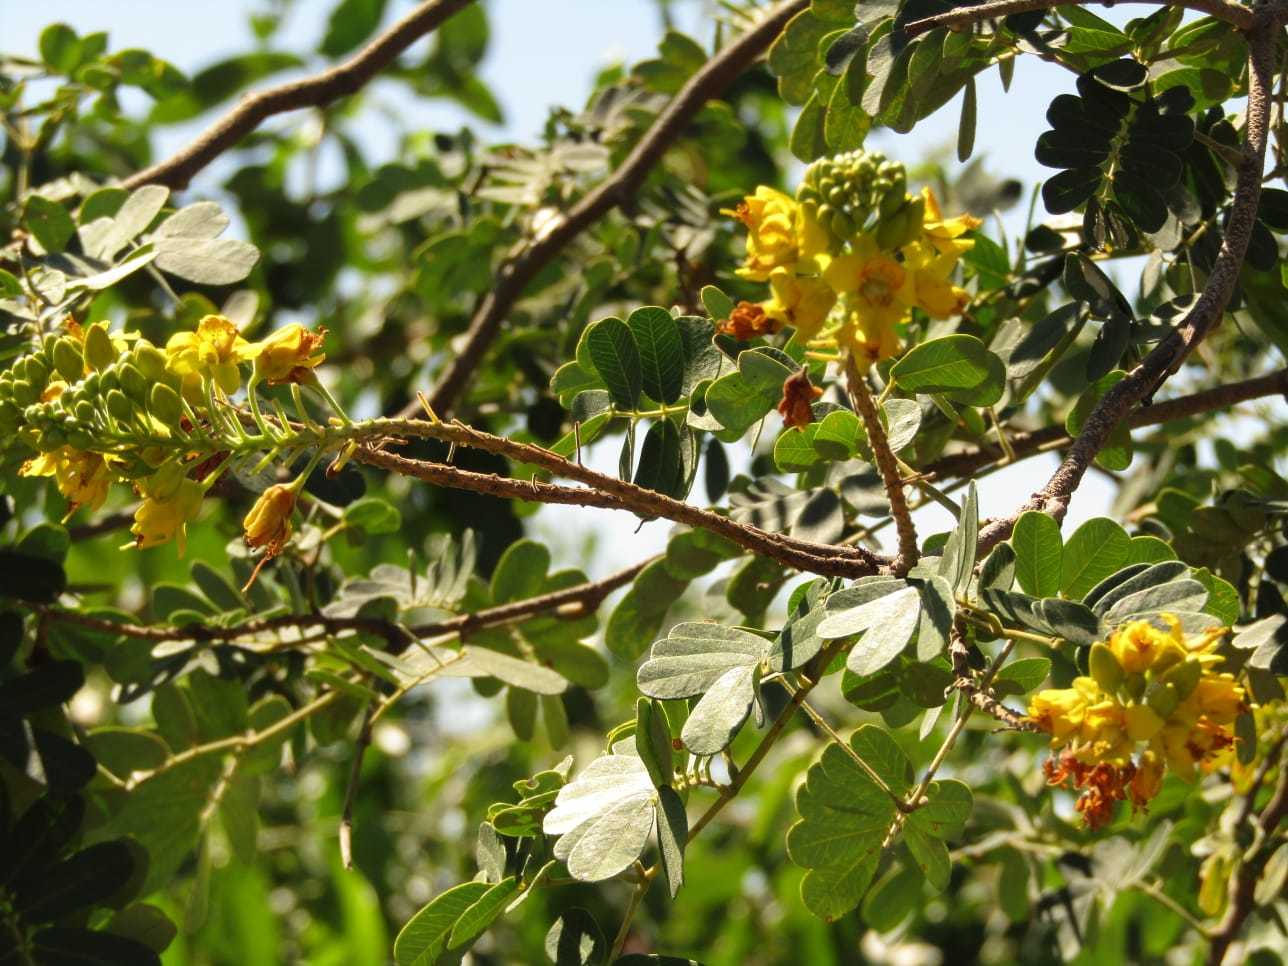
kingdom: Plantae
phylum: Tracheophyta
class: Magnoliopsida
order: Fabales
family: Fabaceae
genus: Libidibia
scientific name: Libidibia ferrea
